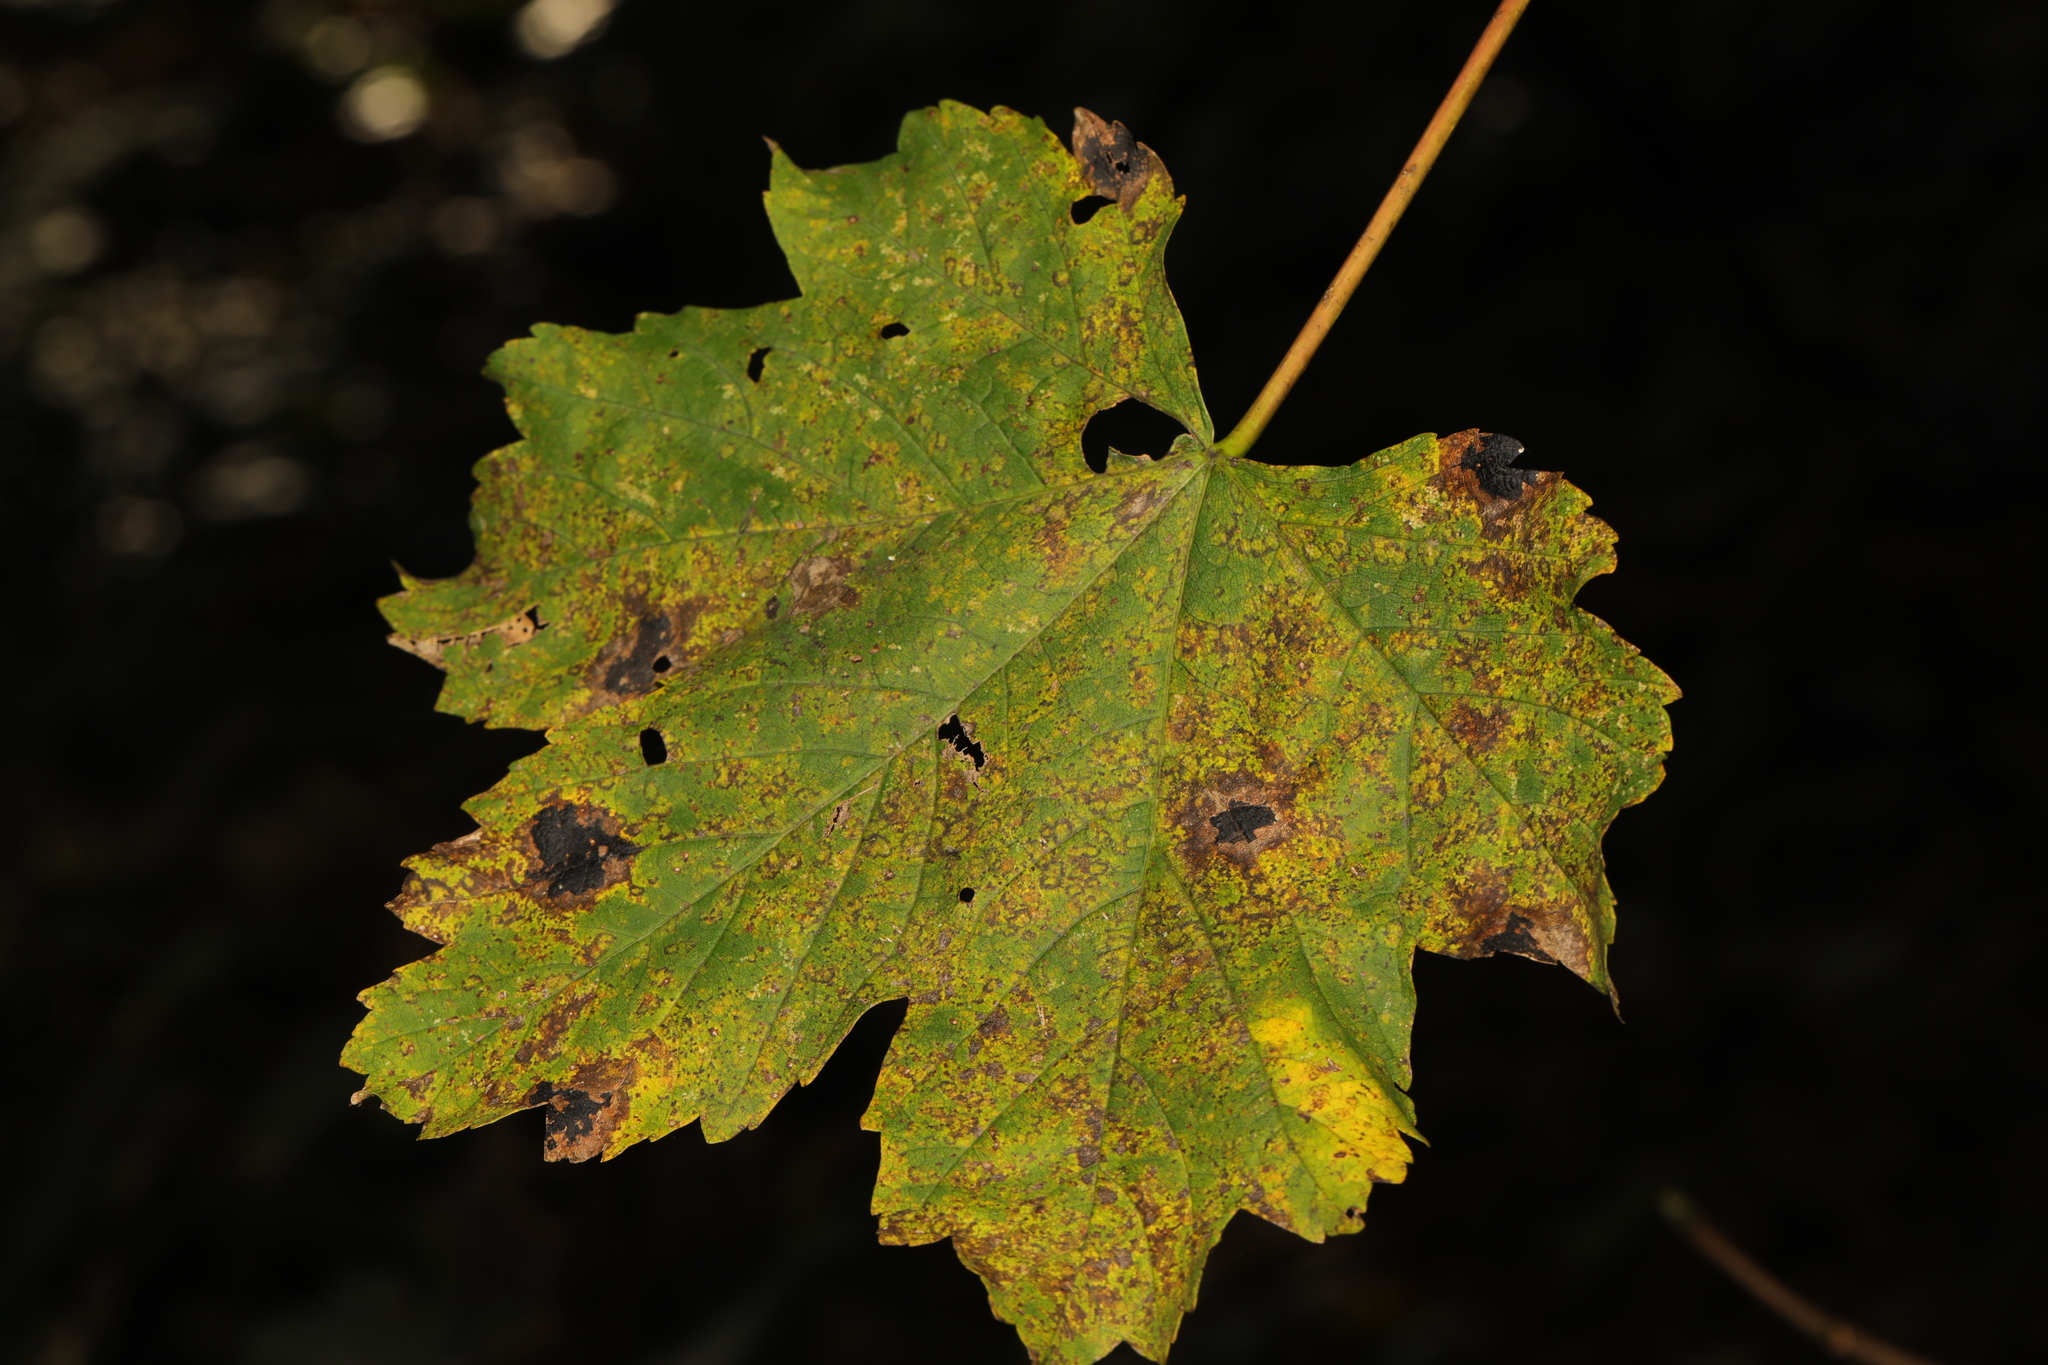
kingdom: Fungi
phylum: Ascomycota
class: Leotiomycetes
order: Rhytismatales
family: Rhytismataceae
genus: Rhytisma
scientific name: Rhytisma acerinum
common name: European tar spot
